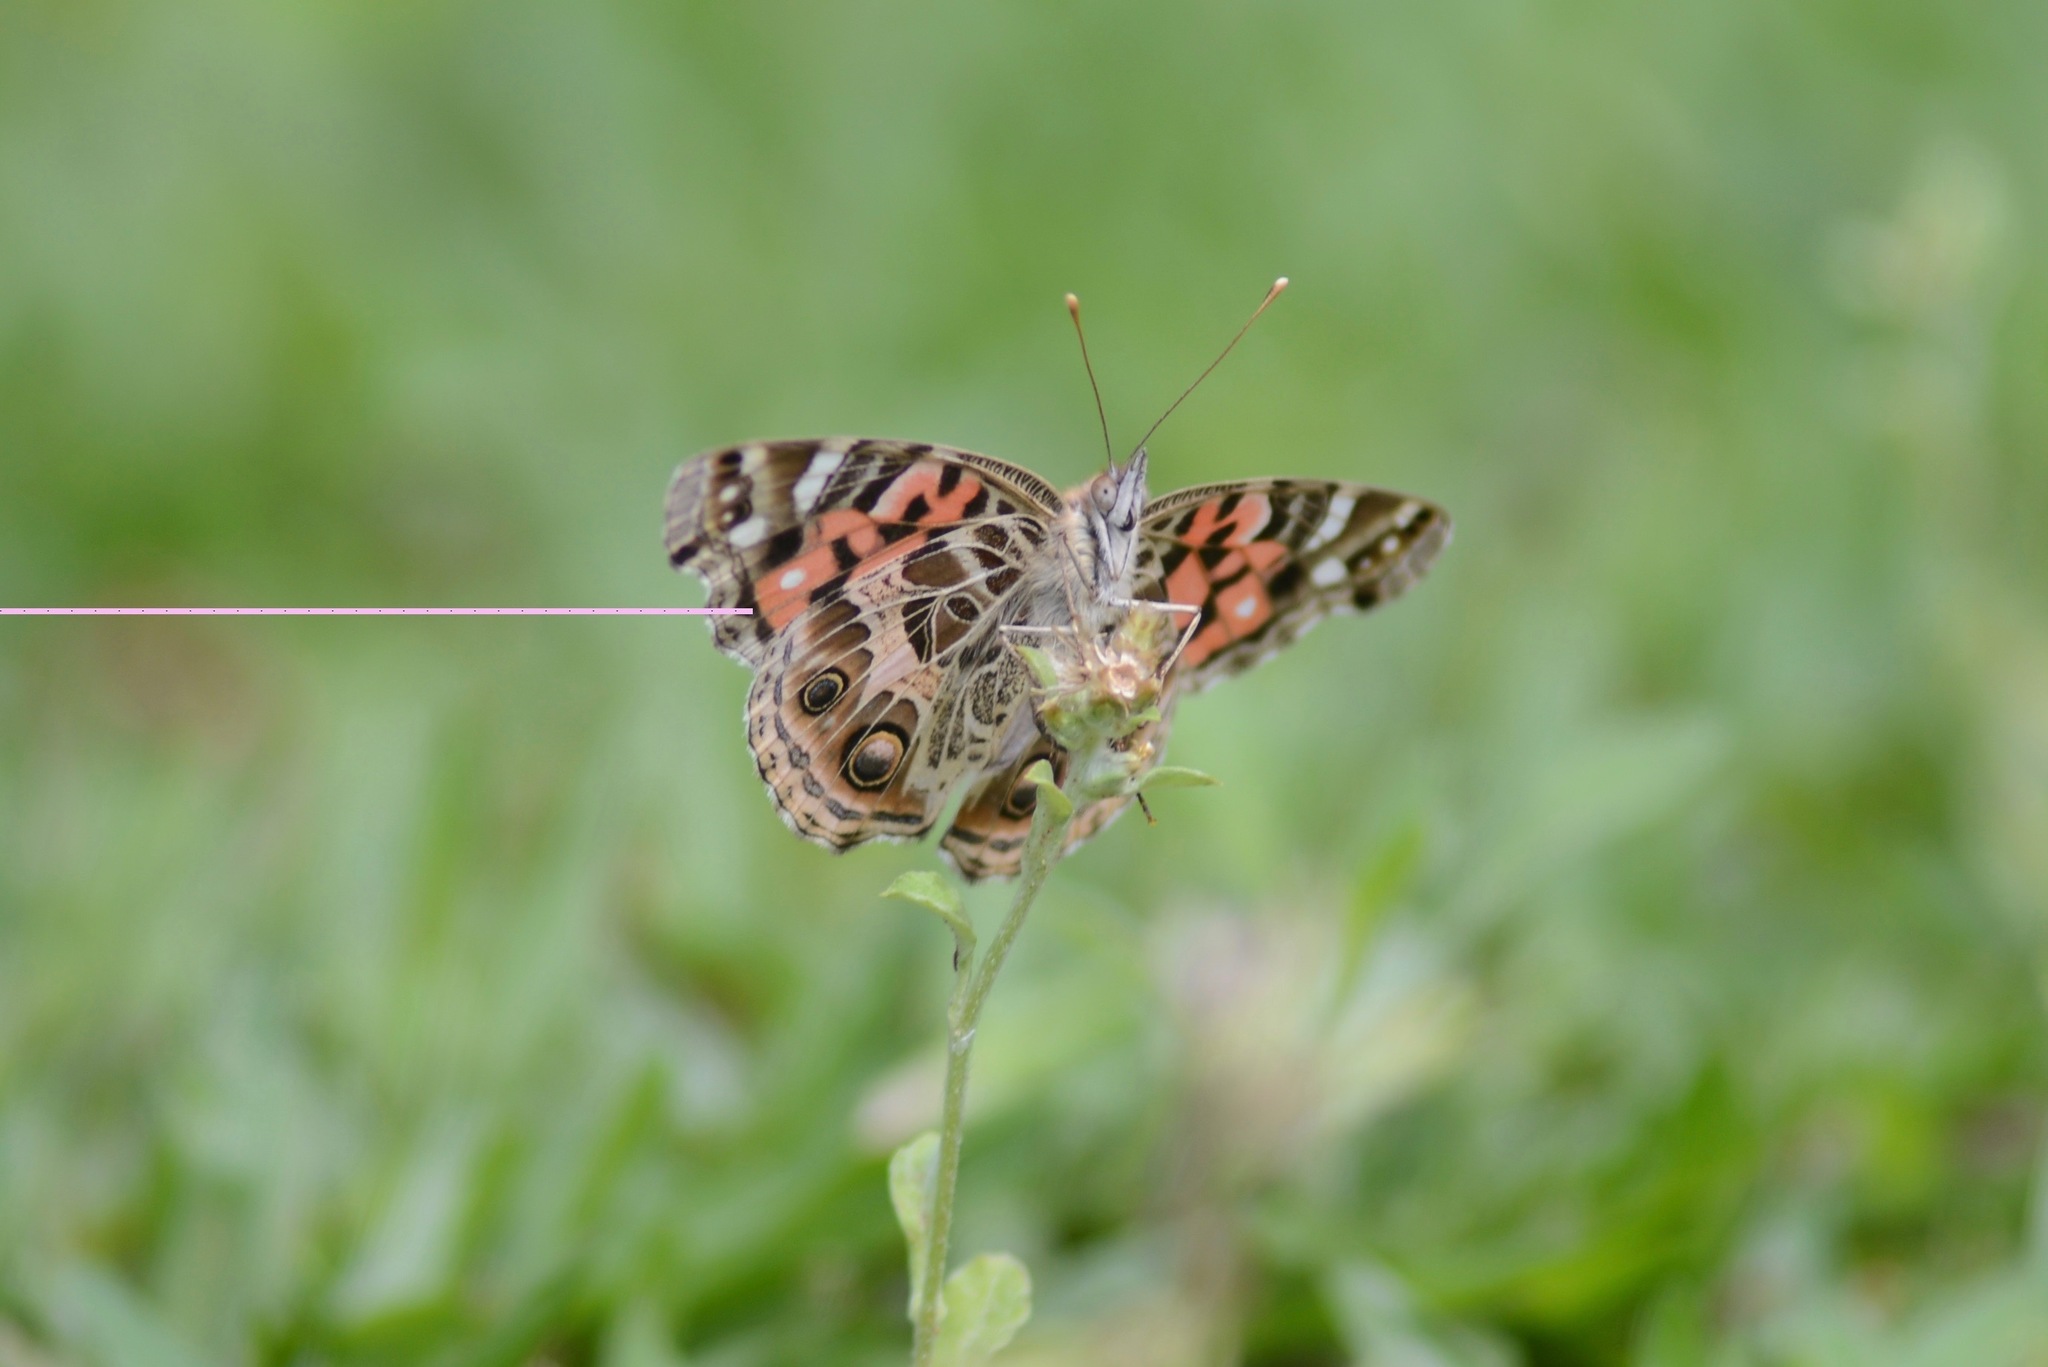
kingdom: Animalia
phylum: Arthropoda
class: Insecta
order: Lepidoptera
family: Nymphalidae
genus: Vanessa
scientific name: Vanessa braziliensis
